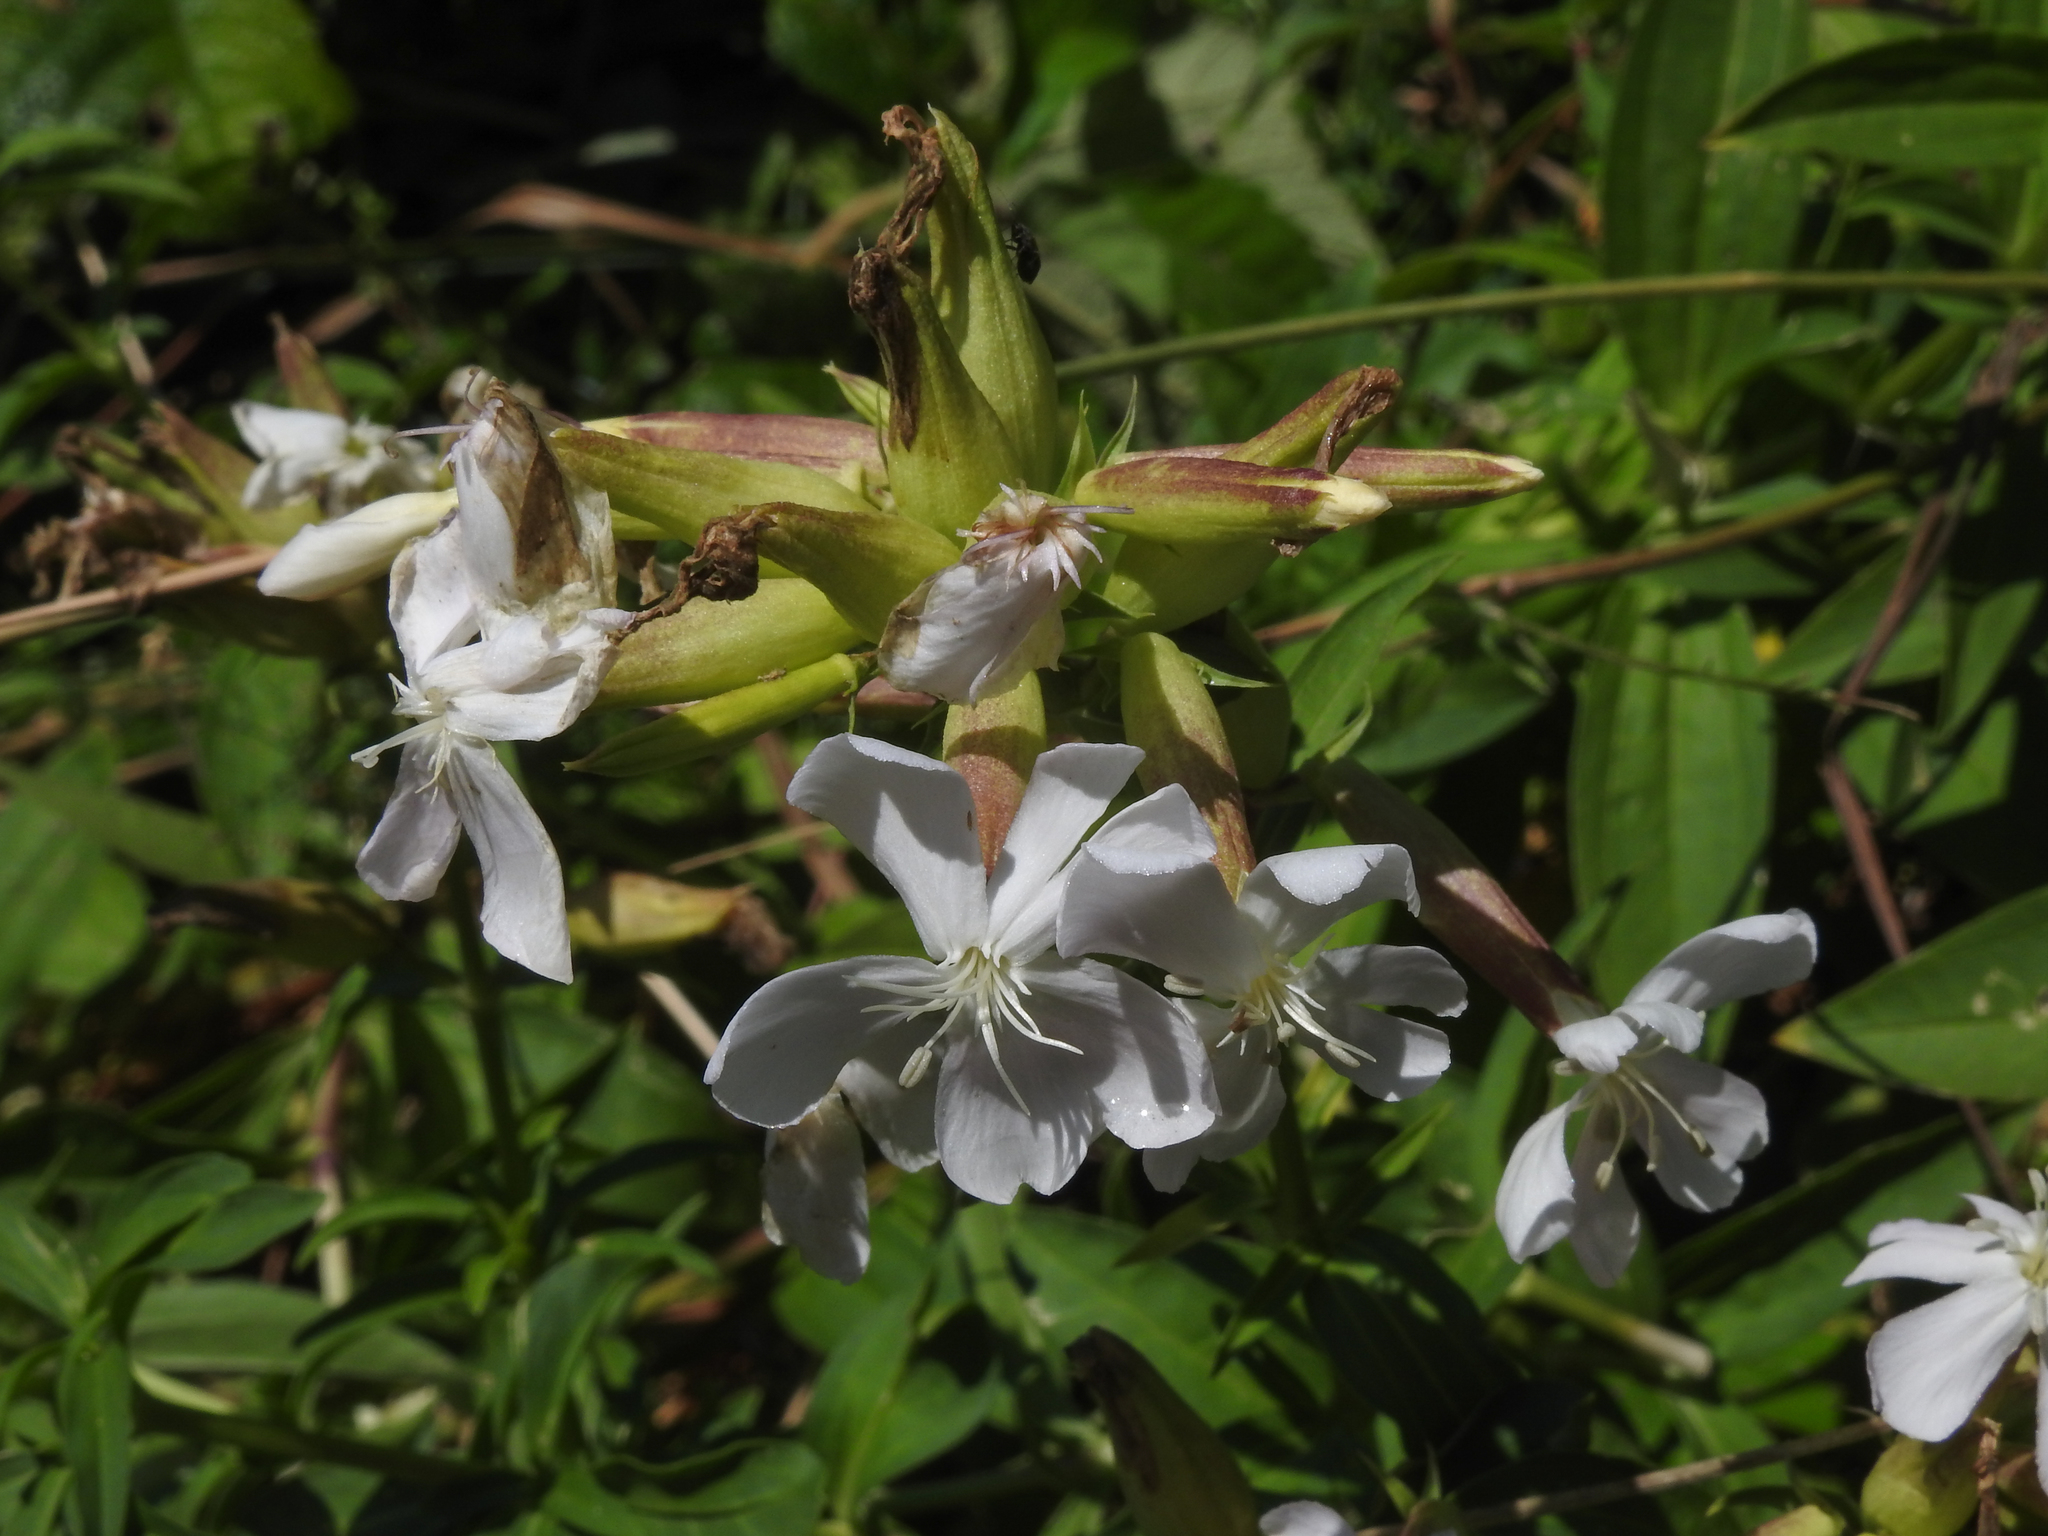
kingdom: Plantae
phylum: Tracheophyta
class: Magnoliopsida
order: Caryophyllales
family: Caryophyllaceae
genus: Saponaria
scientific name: Saponaria officinalis
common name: Soapwort
